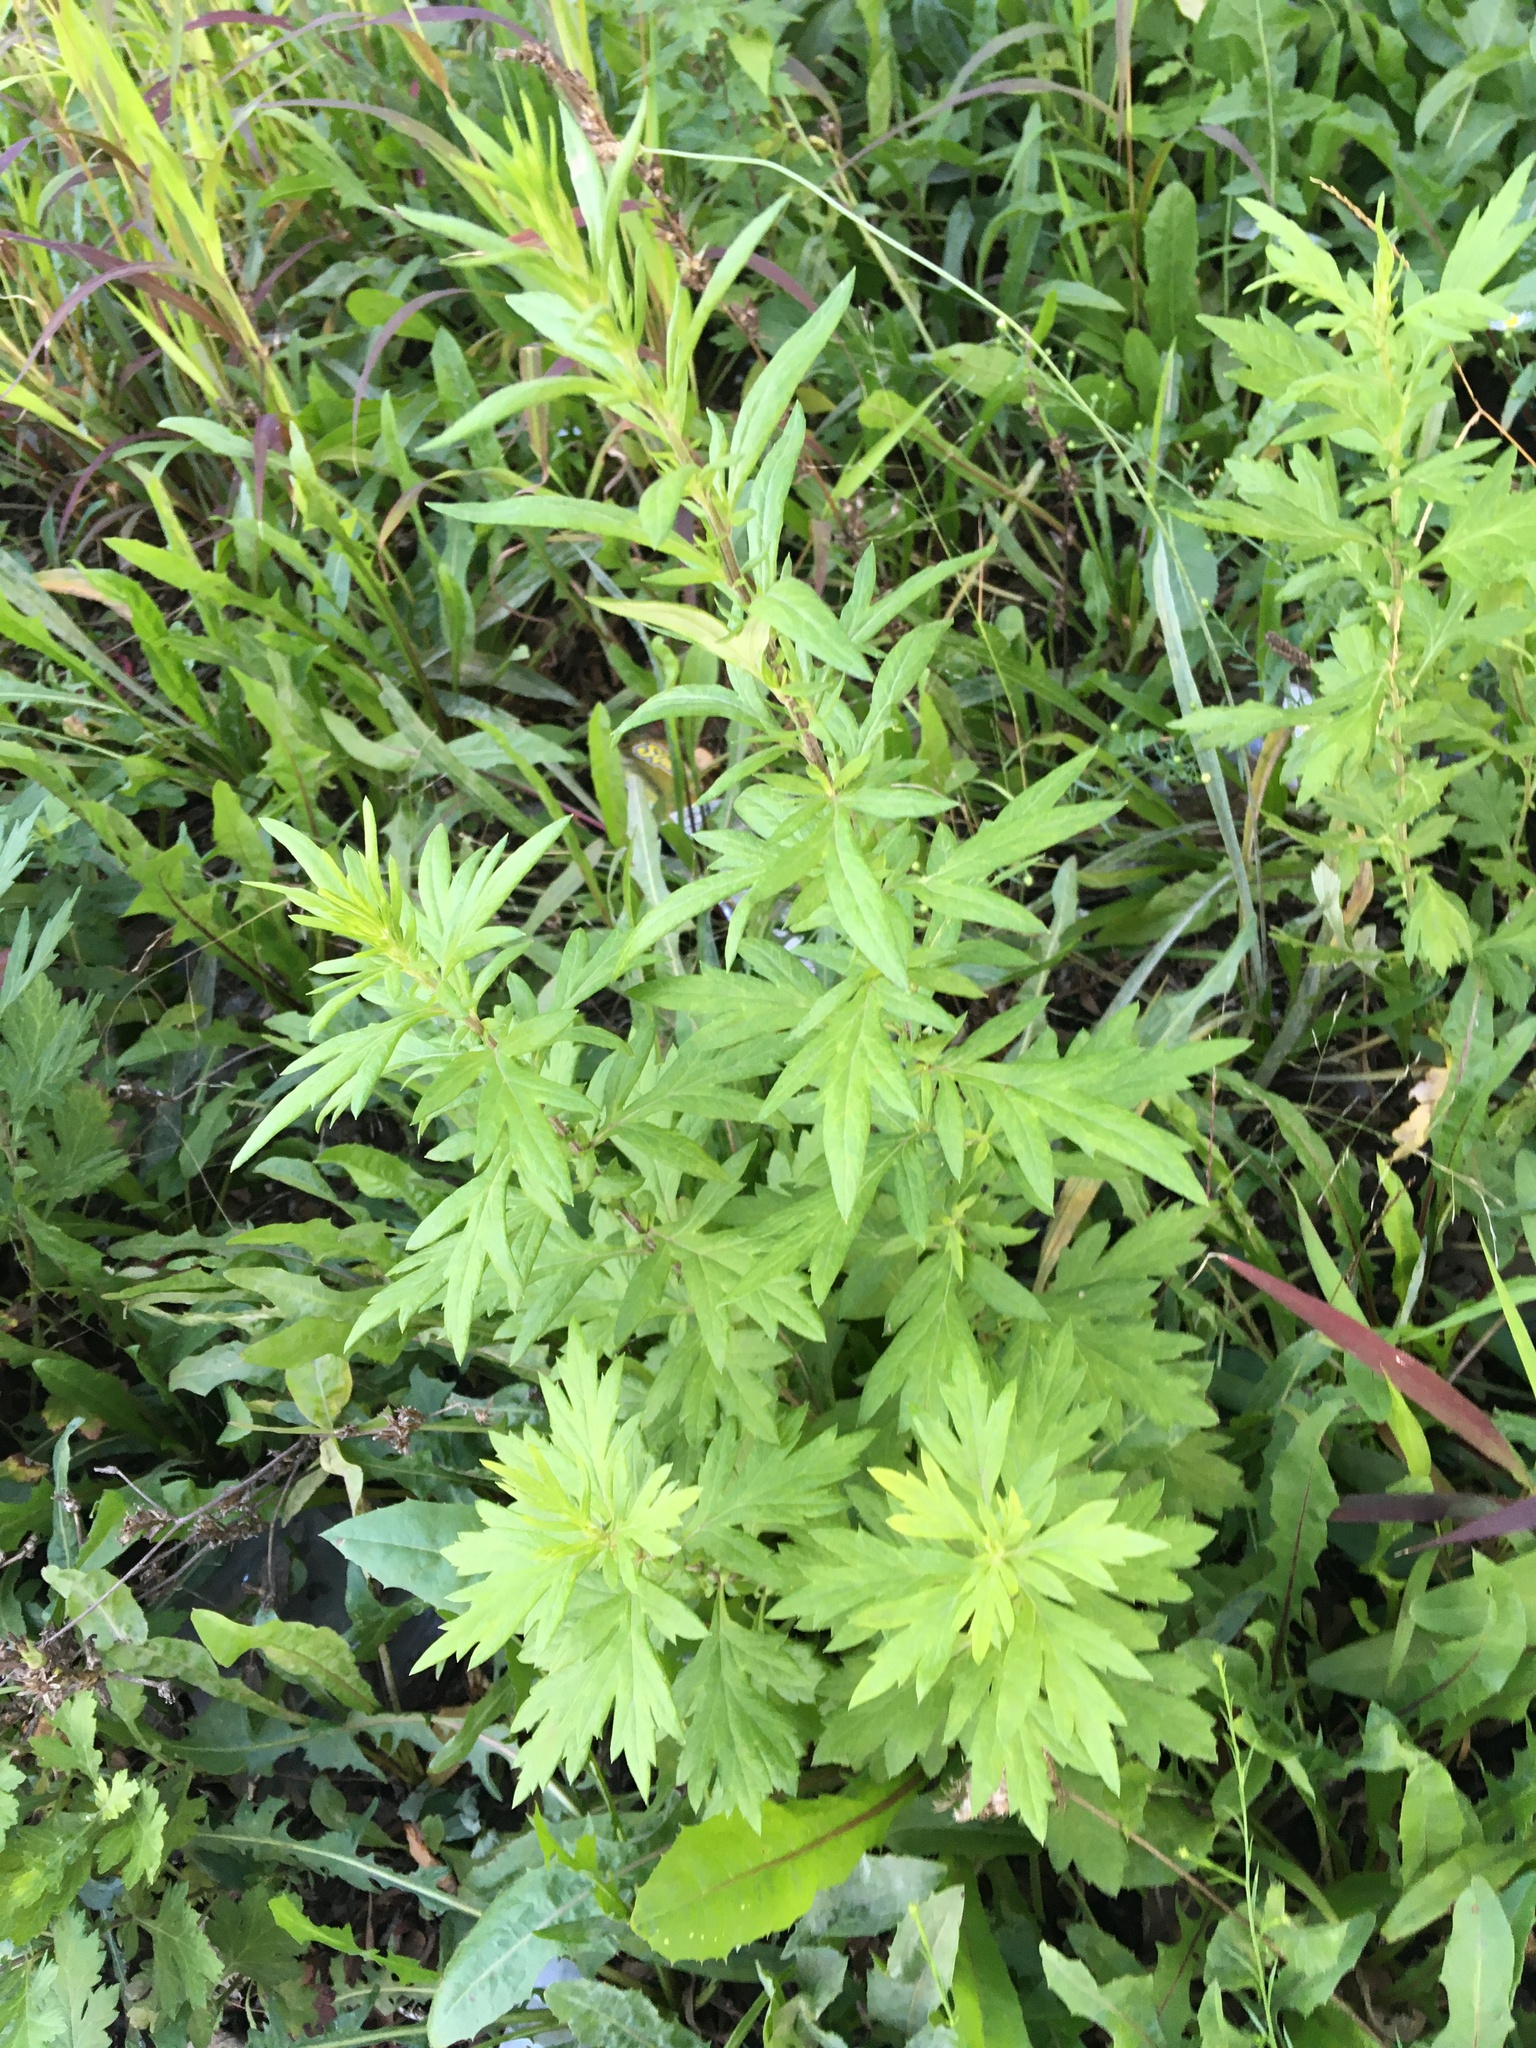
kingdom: Plantae
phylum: Tracheophyta
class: Magnoliopsida
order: Asterales
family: Asteraceae
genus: Artemisia
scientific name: Artemisia vulgaris
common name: Mugwort
